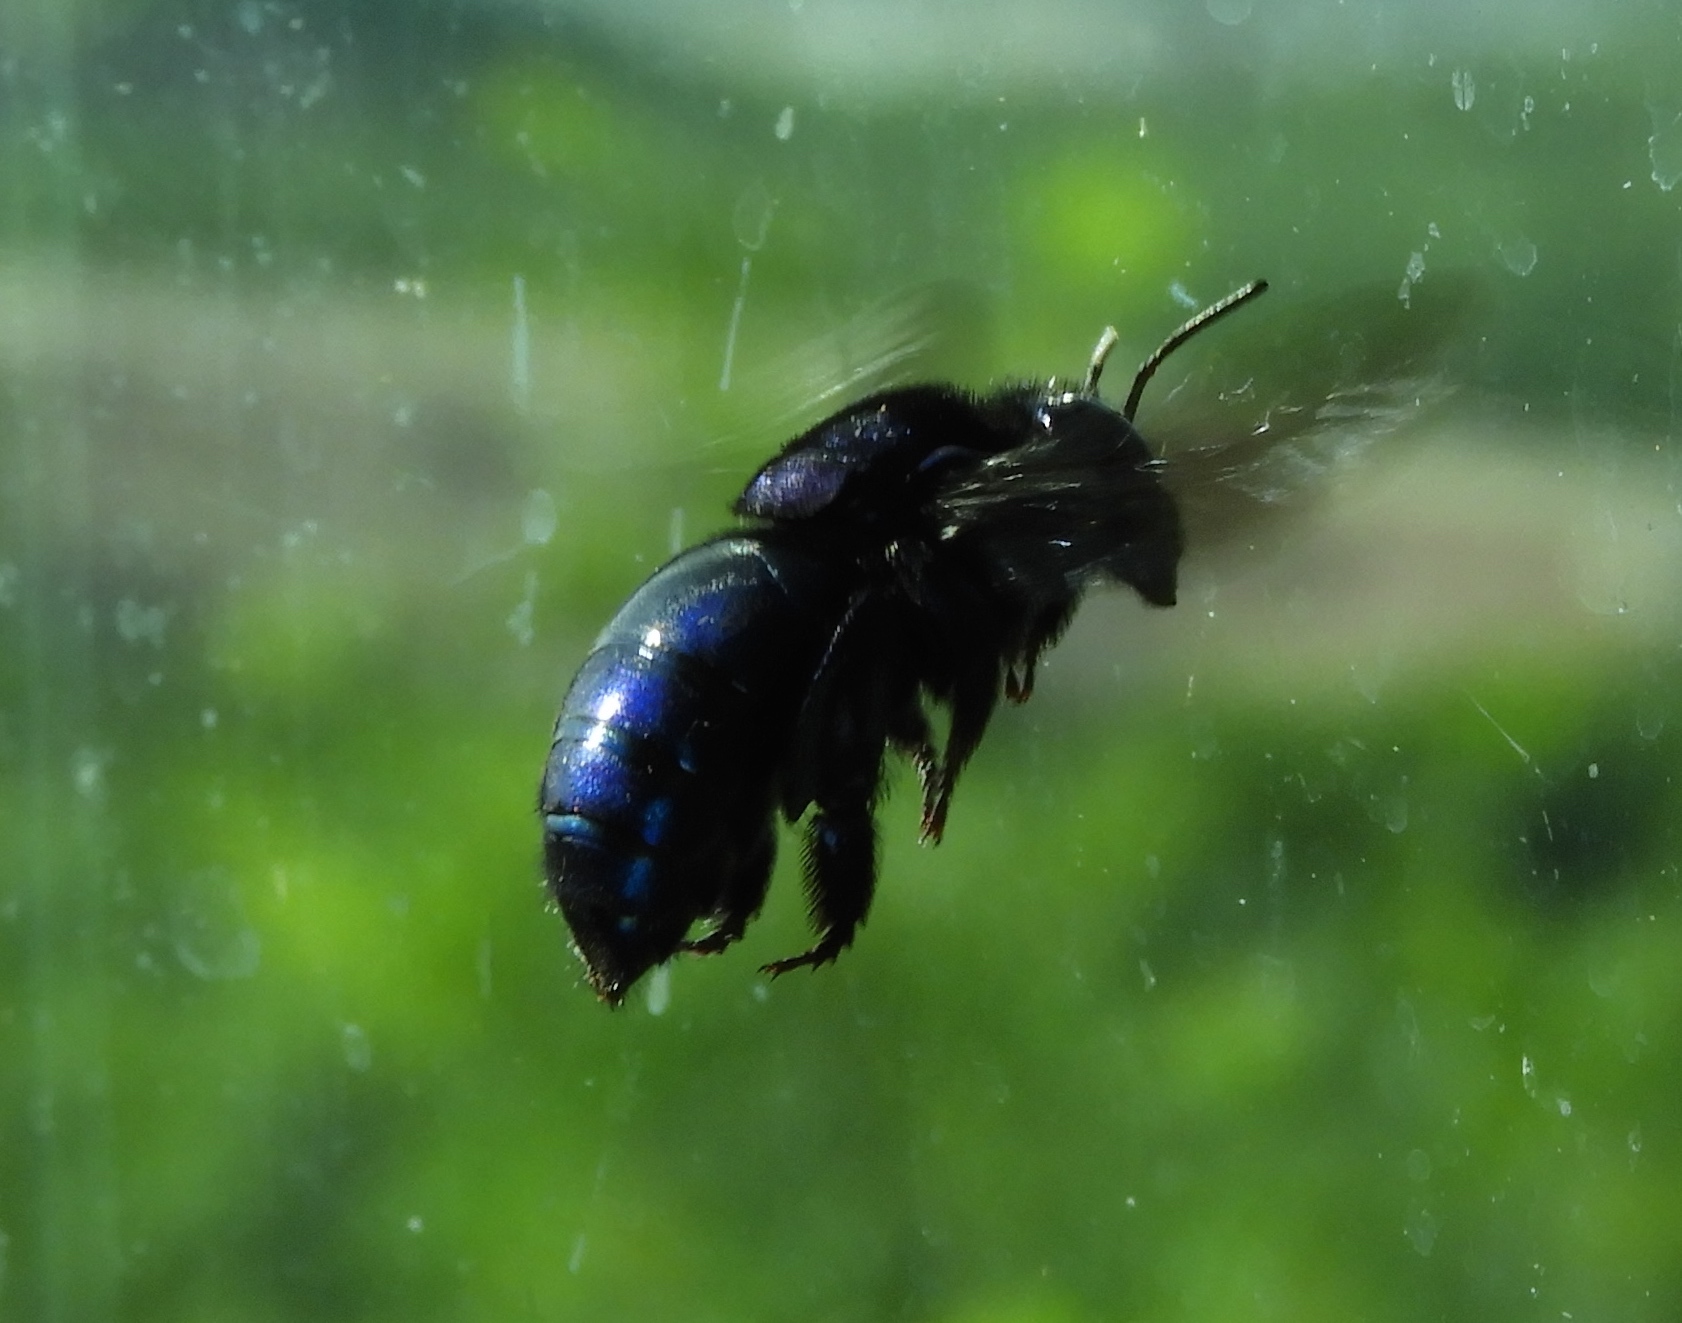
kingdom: Animalia
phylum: Arthropoda
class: Insecta
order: Hymenoptera
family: Apidae
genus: Xylocopa
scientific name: Xylocopa
